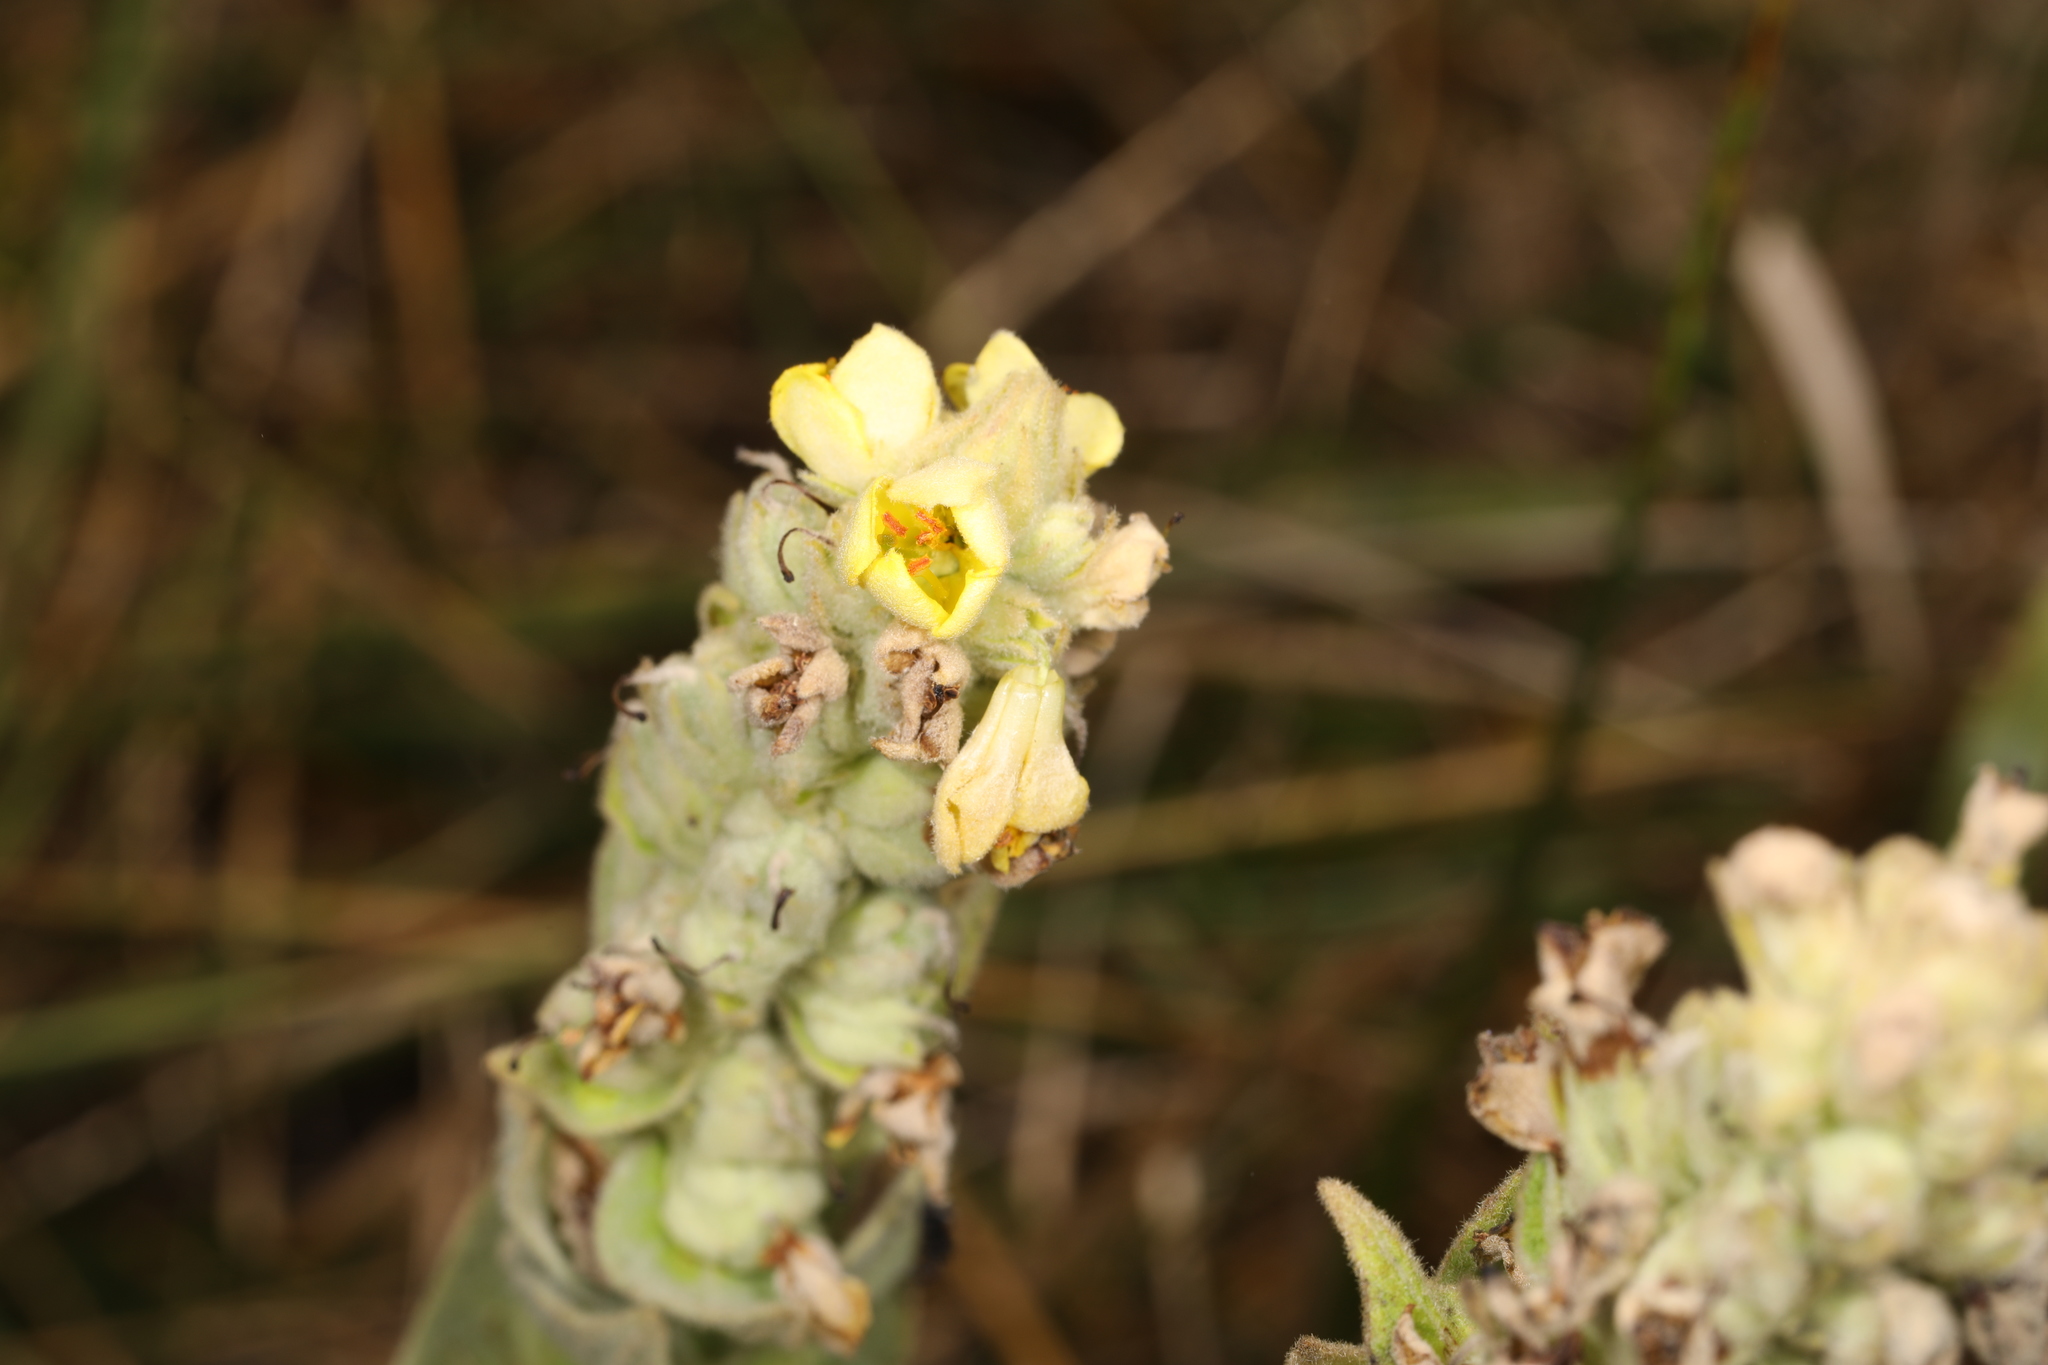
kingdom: Plantae
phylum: Tracheophyta
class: Magnoliopsida
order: Lamiales
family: Scrophulariaceae
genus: Verbascum
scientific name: Verbascum thapsus
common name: Common mullein
